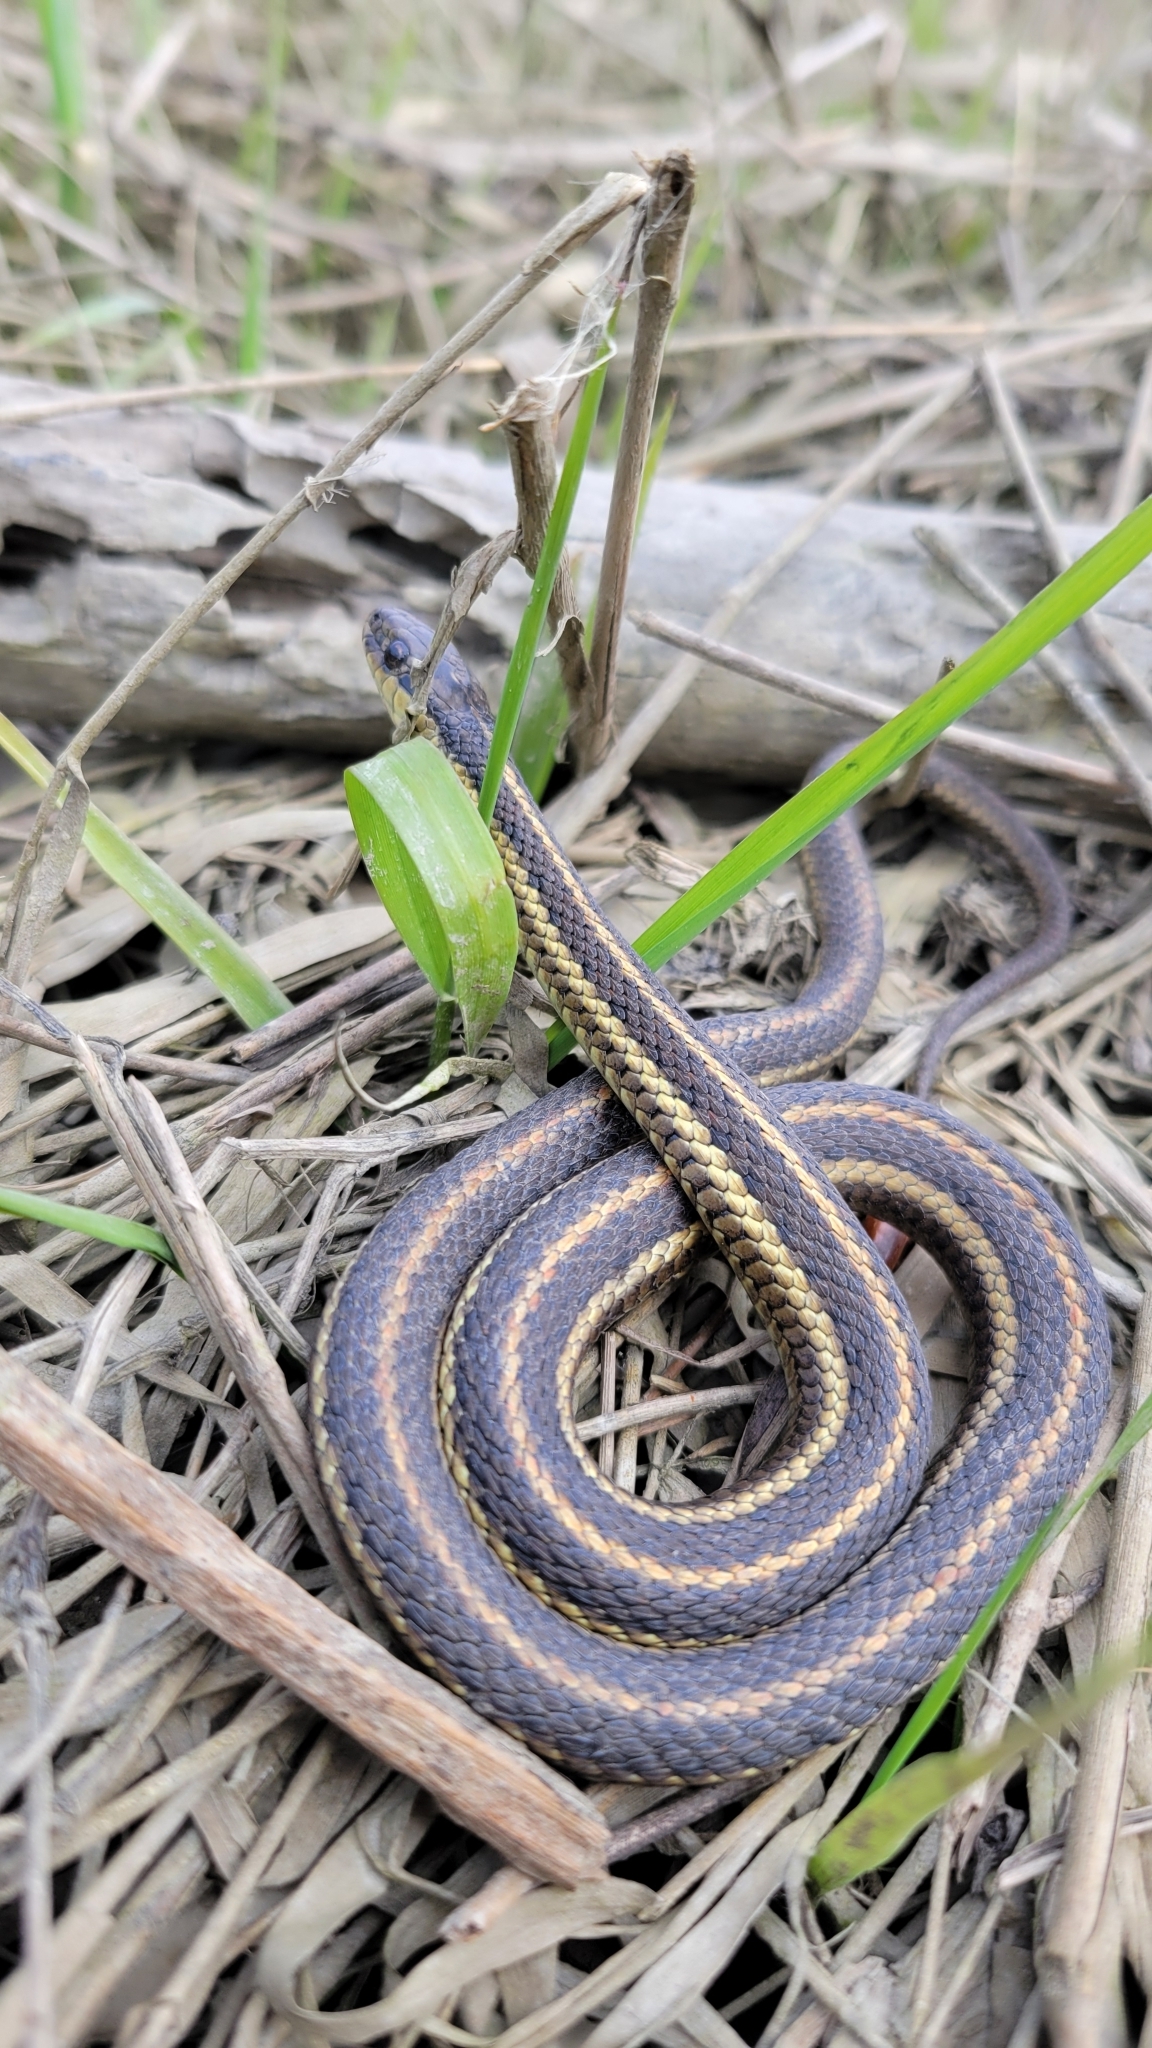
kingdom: Animalia
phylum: Chordata
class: Squamata
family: Colubridae
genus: Thamnophis
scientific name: Thamnophis ordinoides
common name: Northwestern garter snake
